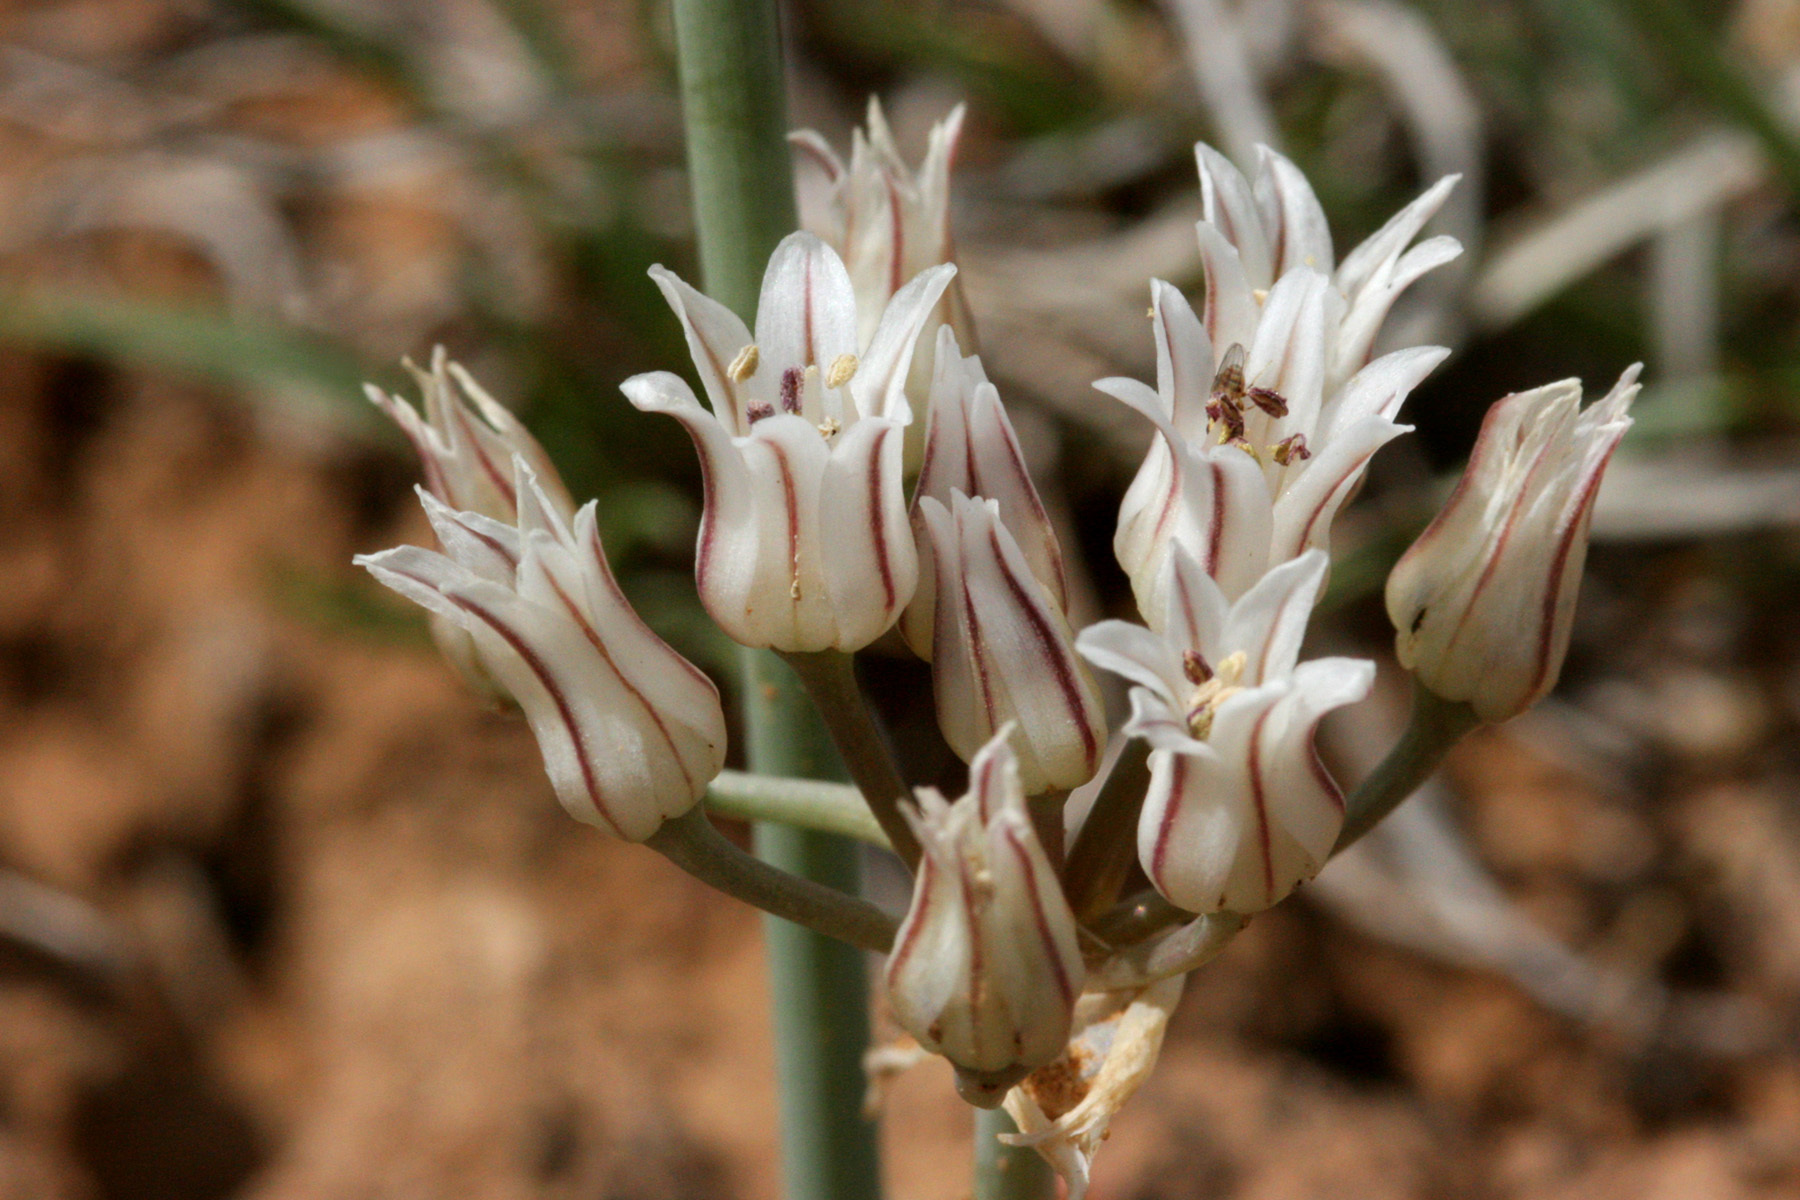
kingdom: Plantae
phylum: Tracheophyta
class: Liliopsida
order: Asparagales
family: Amaryllidaceae
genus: Allium
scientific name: Allium macropetalum
